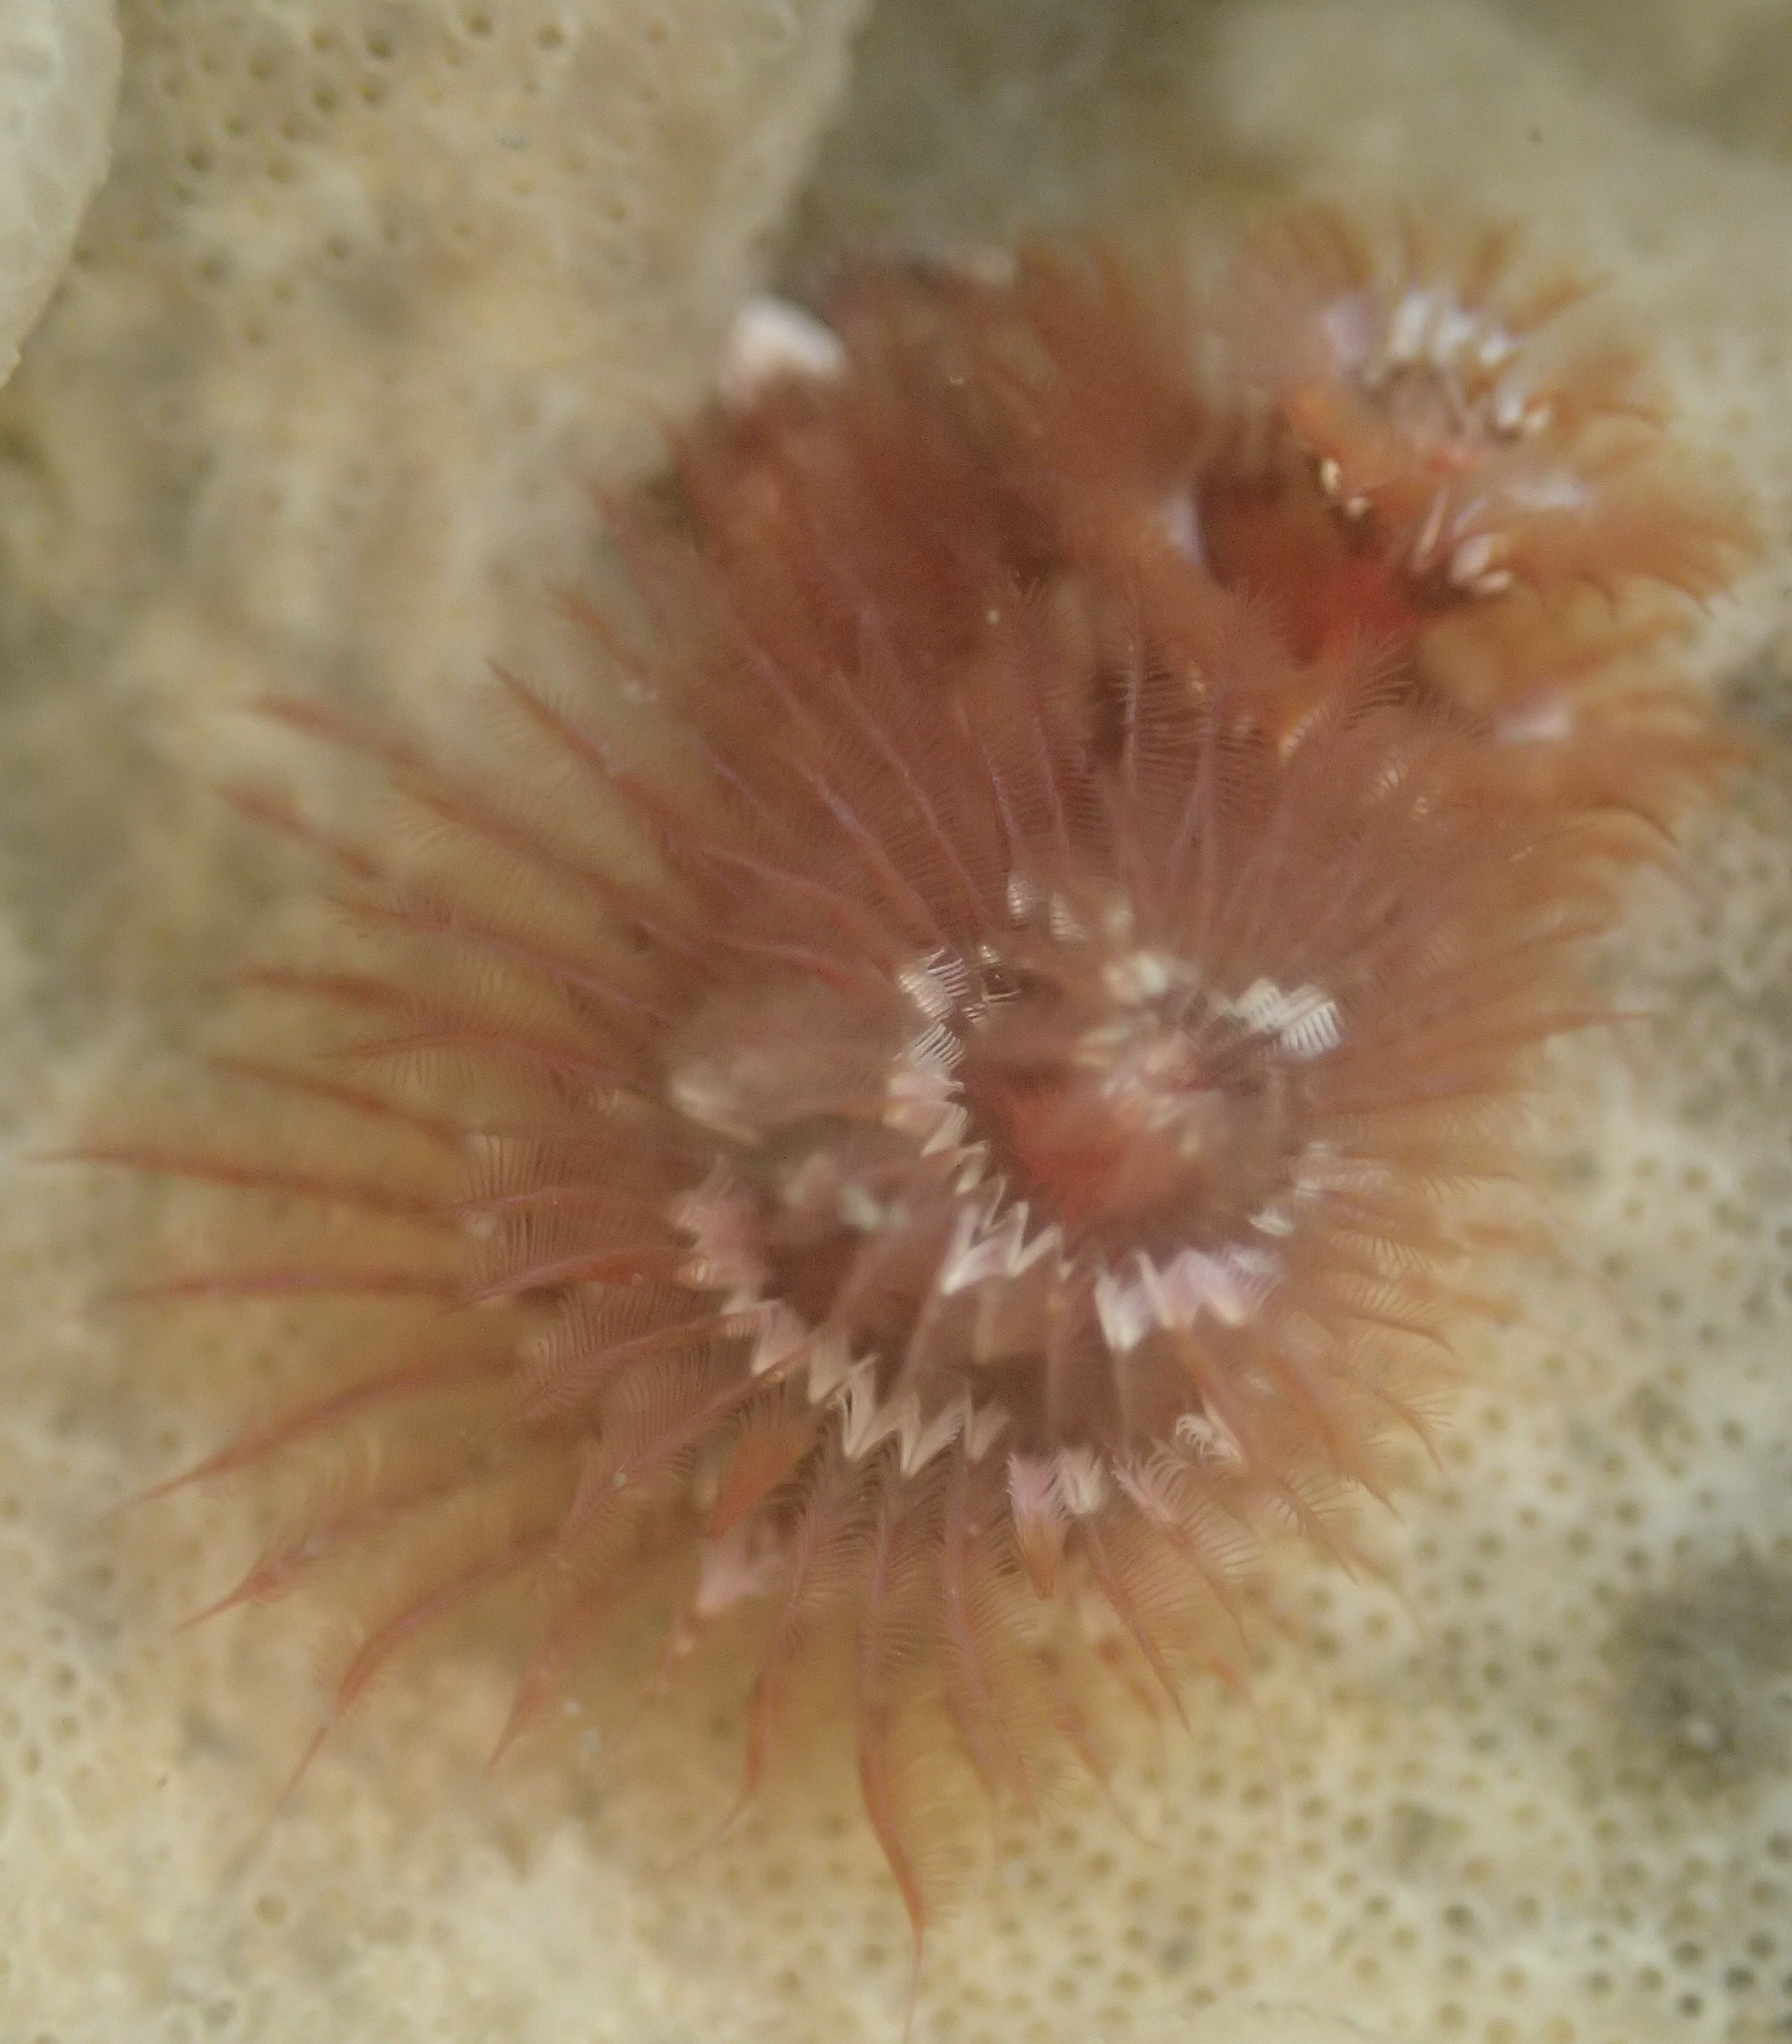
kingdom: Animalia
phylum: Annelida
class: Polychaeta
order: Sabellida
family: Serpulidae
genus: Spirobranchus
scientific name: Spirobranchus spinosus
